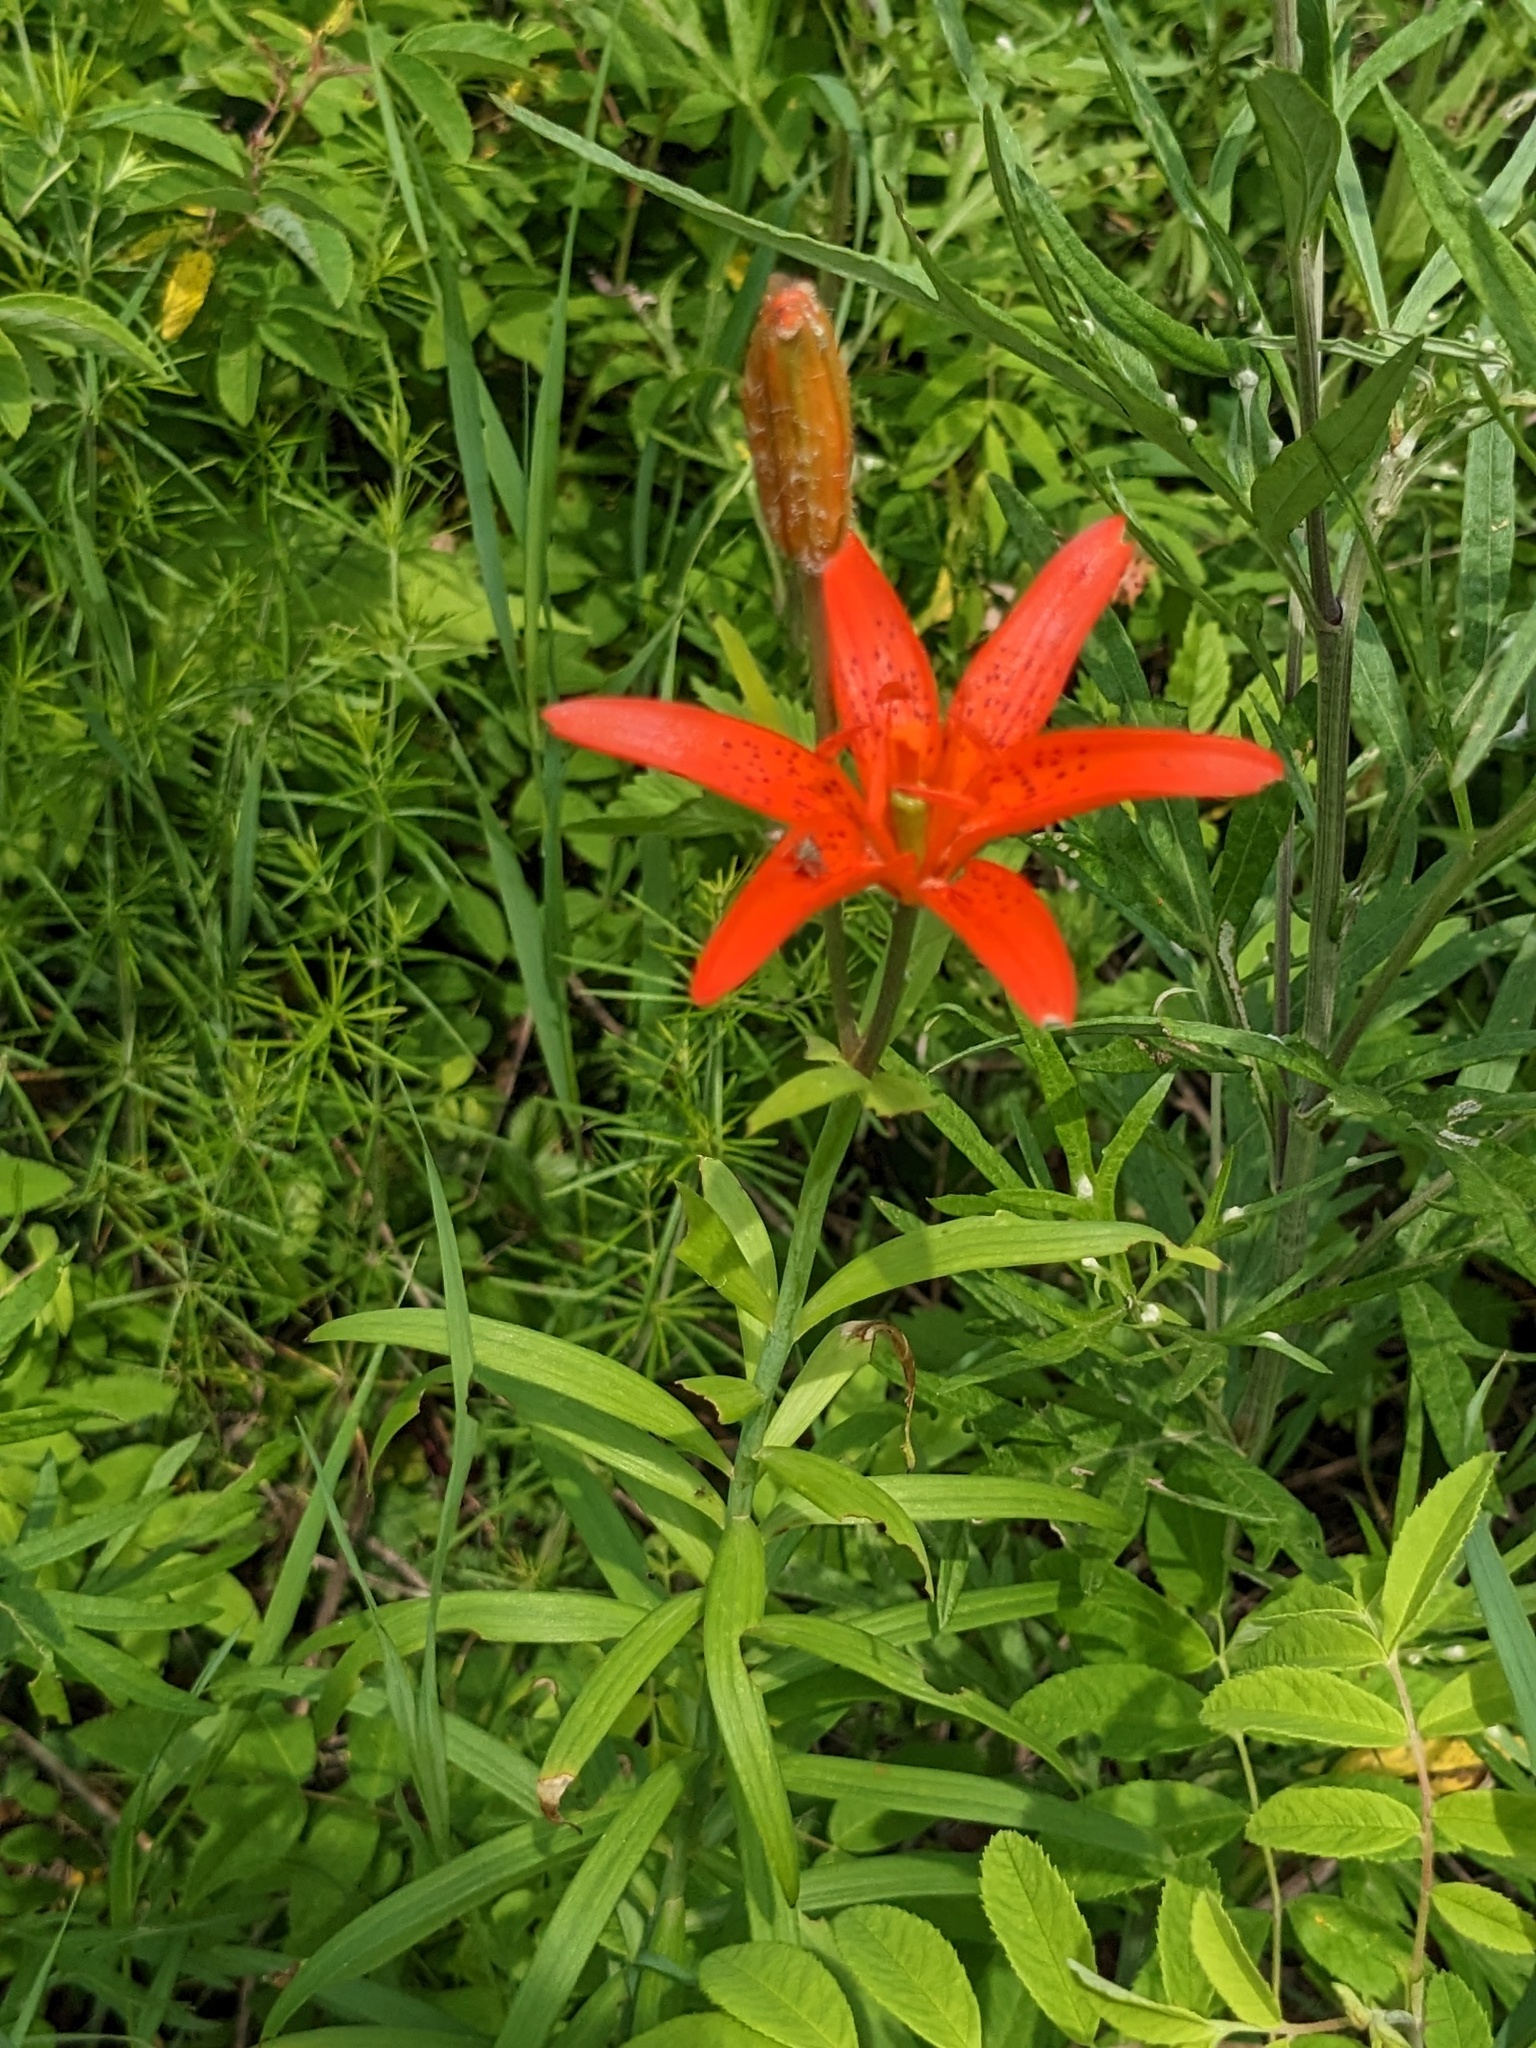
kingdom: Plantae
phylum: Tracheophyta
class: Liliopsida
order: Liliales
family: Liliaceae
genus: Lilium
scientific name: Lilium concolor
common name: Morning-star lily
